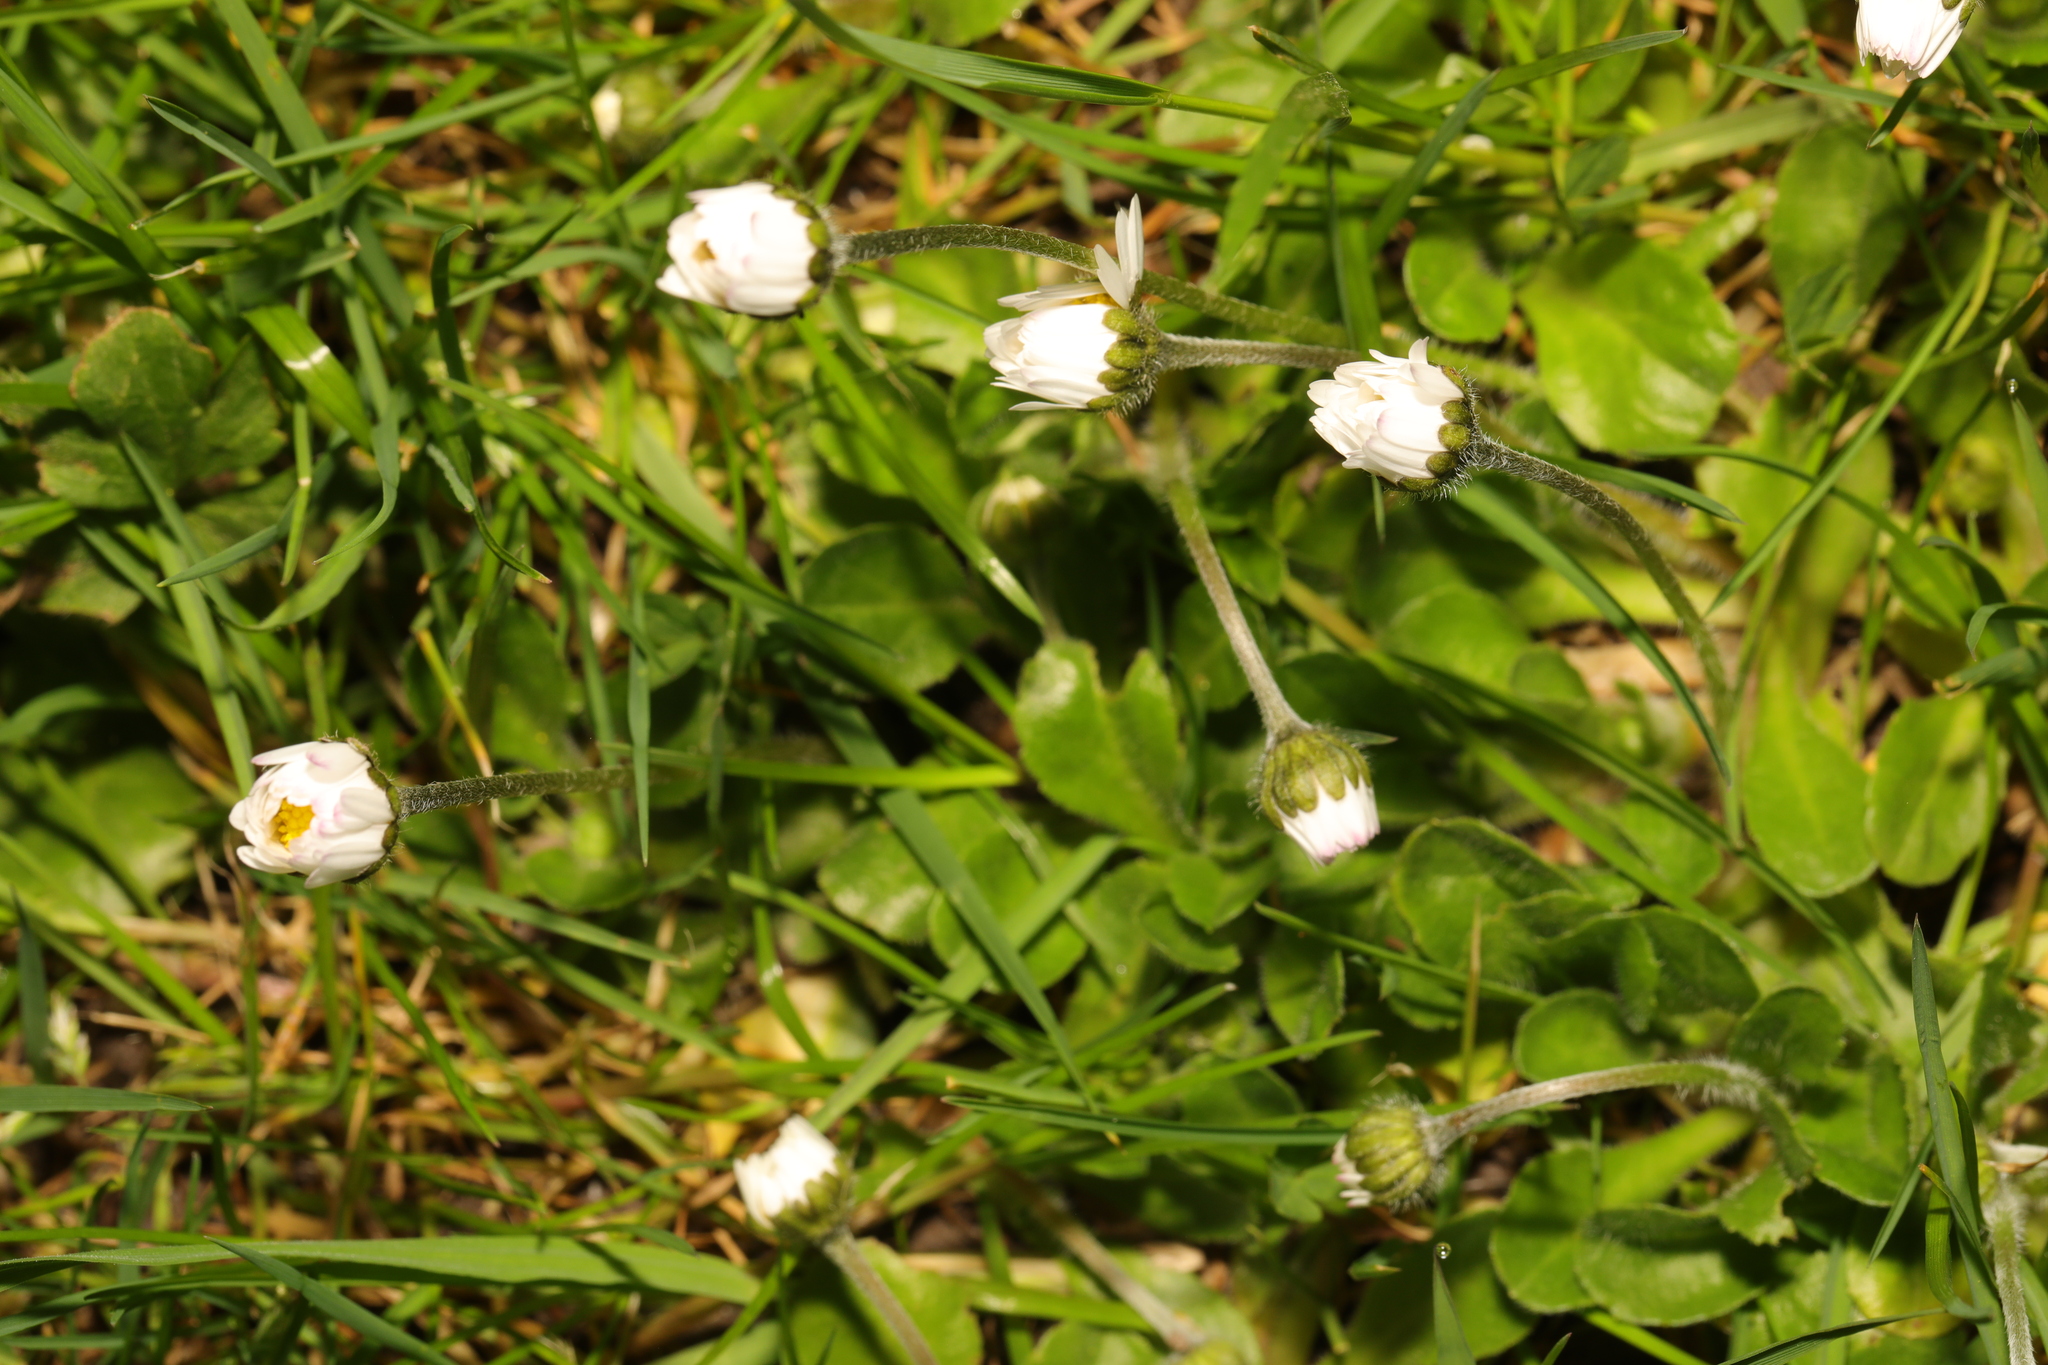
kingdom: Plantae
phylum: Tracheophyta
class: Magnoliopsida
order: Asterales
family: Asteraceae
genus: Bellis
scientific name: Bellis perennis
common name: Lawndaisy
